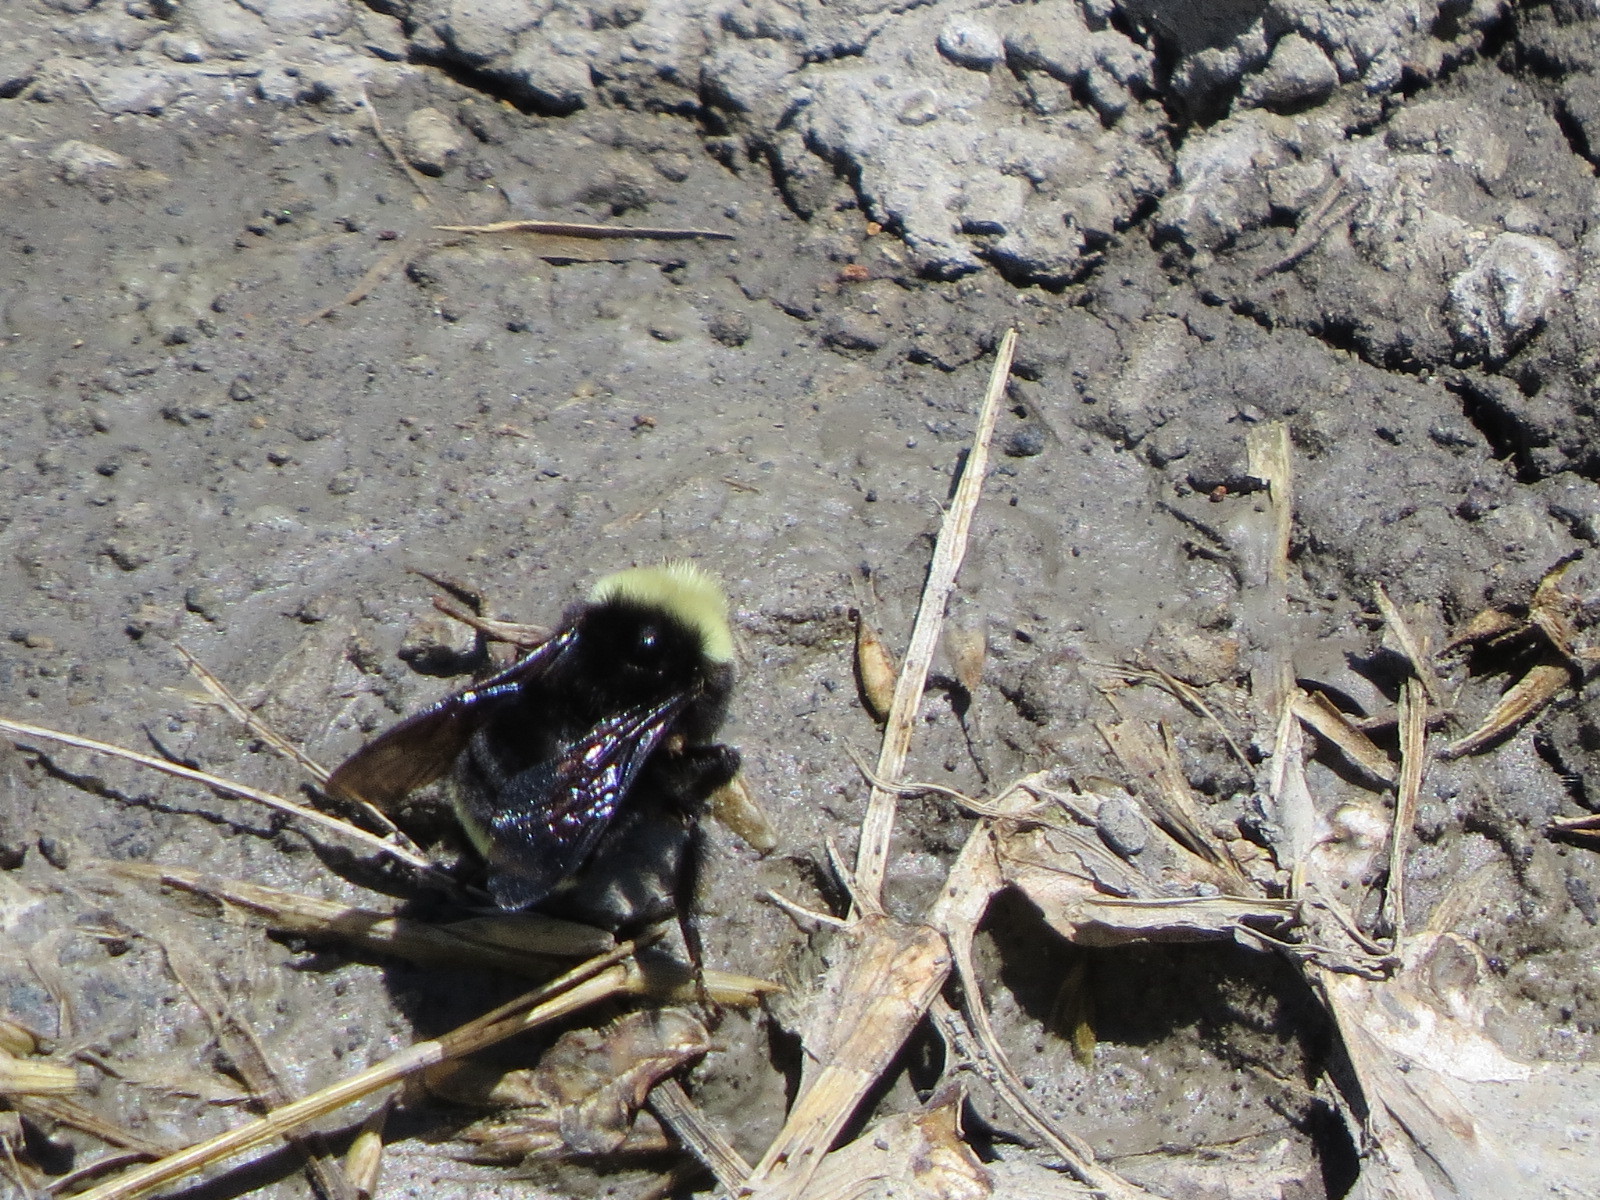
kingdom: Animalia
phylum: Arthropoda
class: Insecta
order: Hymenoptera
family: Apidae
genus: Bombus
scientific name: Bombus vosnesenskii
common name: Vosnesensky bumble bee
